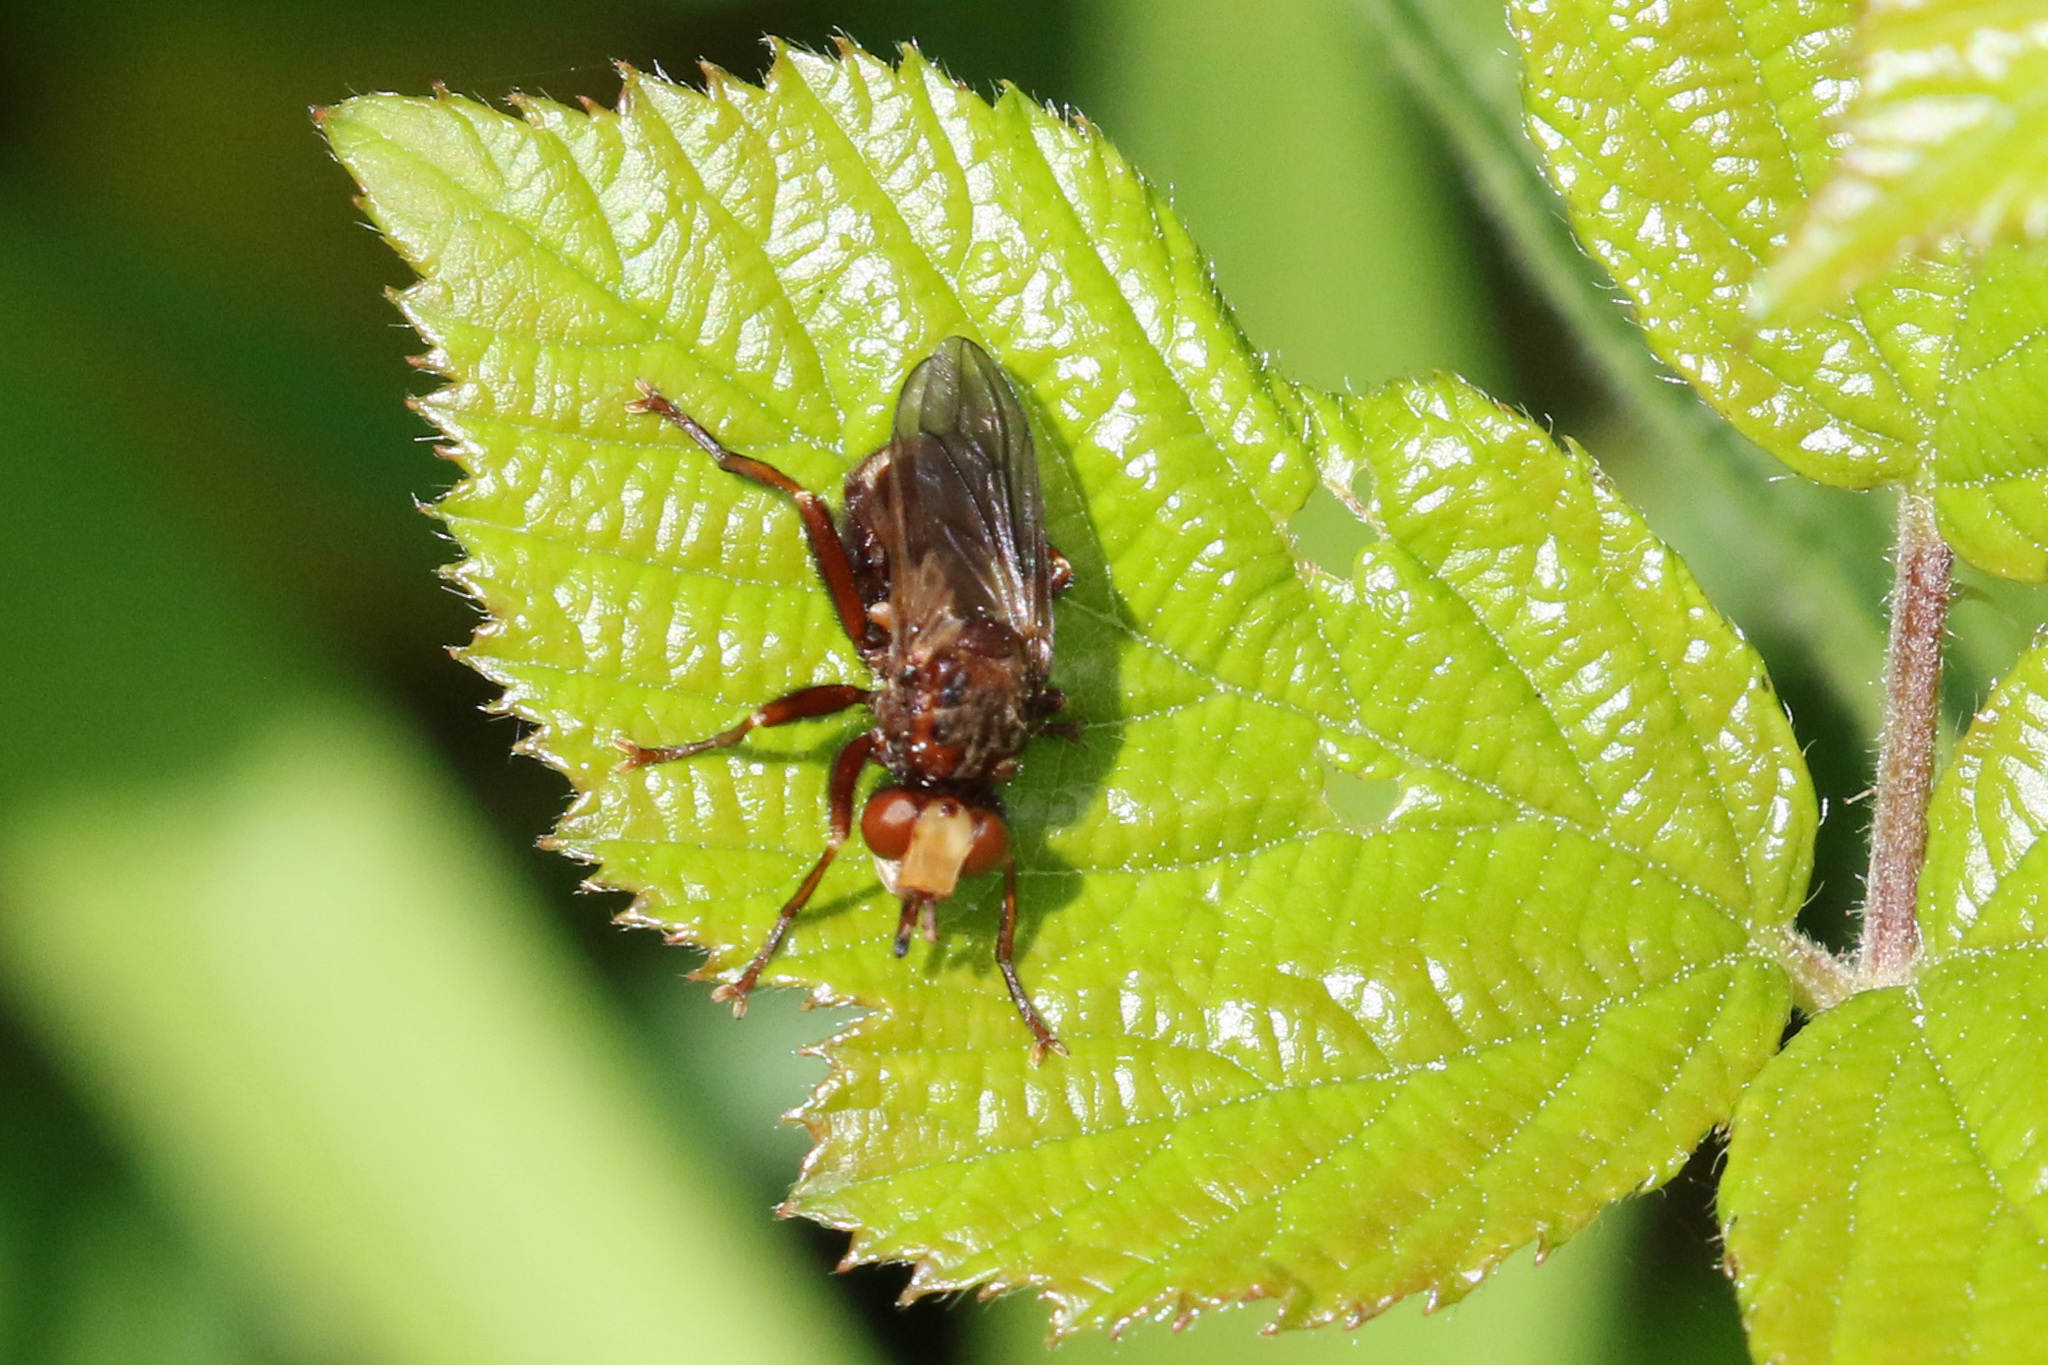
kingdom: Animalia
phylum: Arthropoda
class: Insecta
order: Diptera
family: Conopidae
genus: Sicus
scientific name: Sicus ferrugineus
